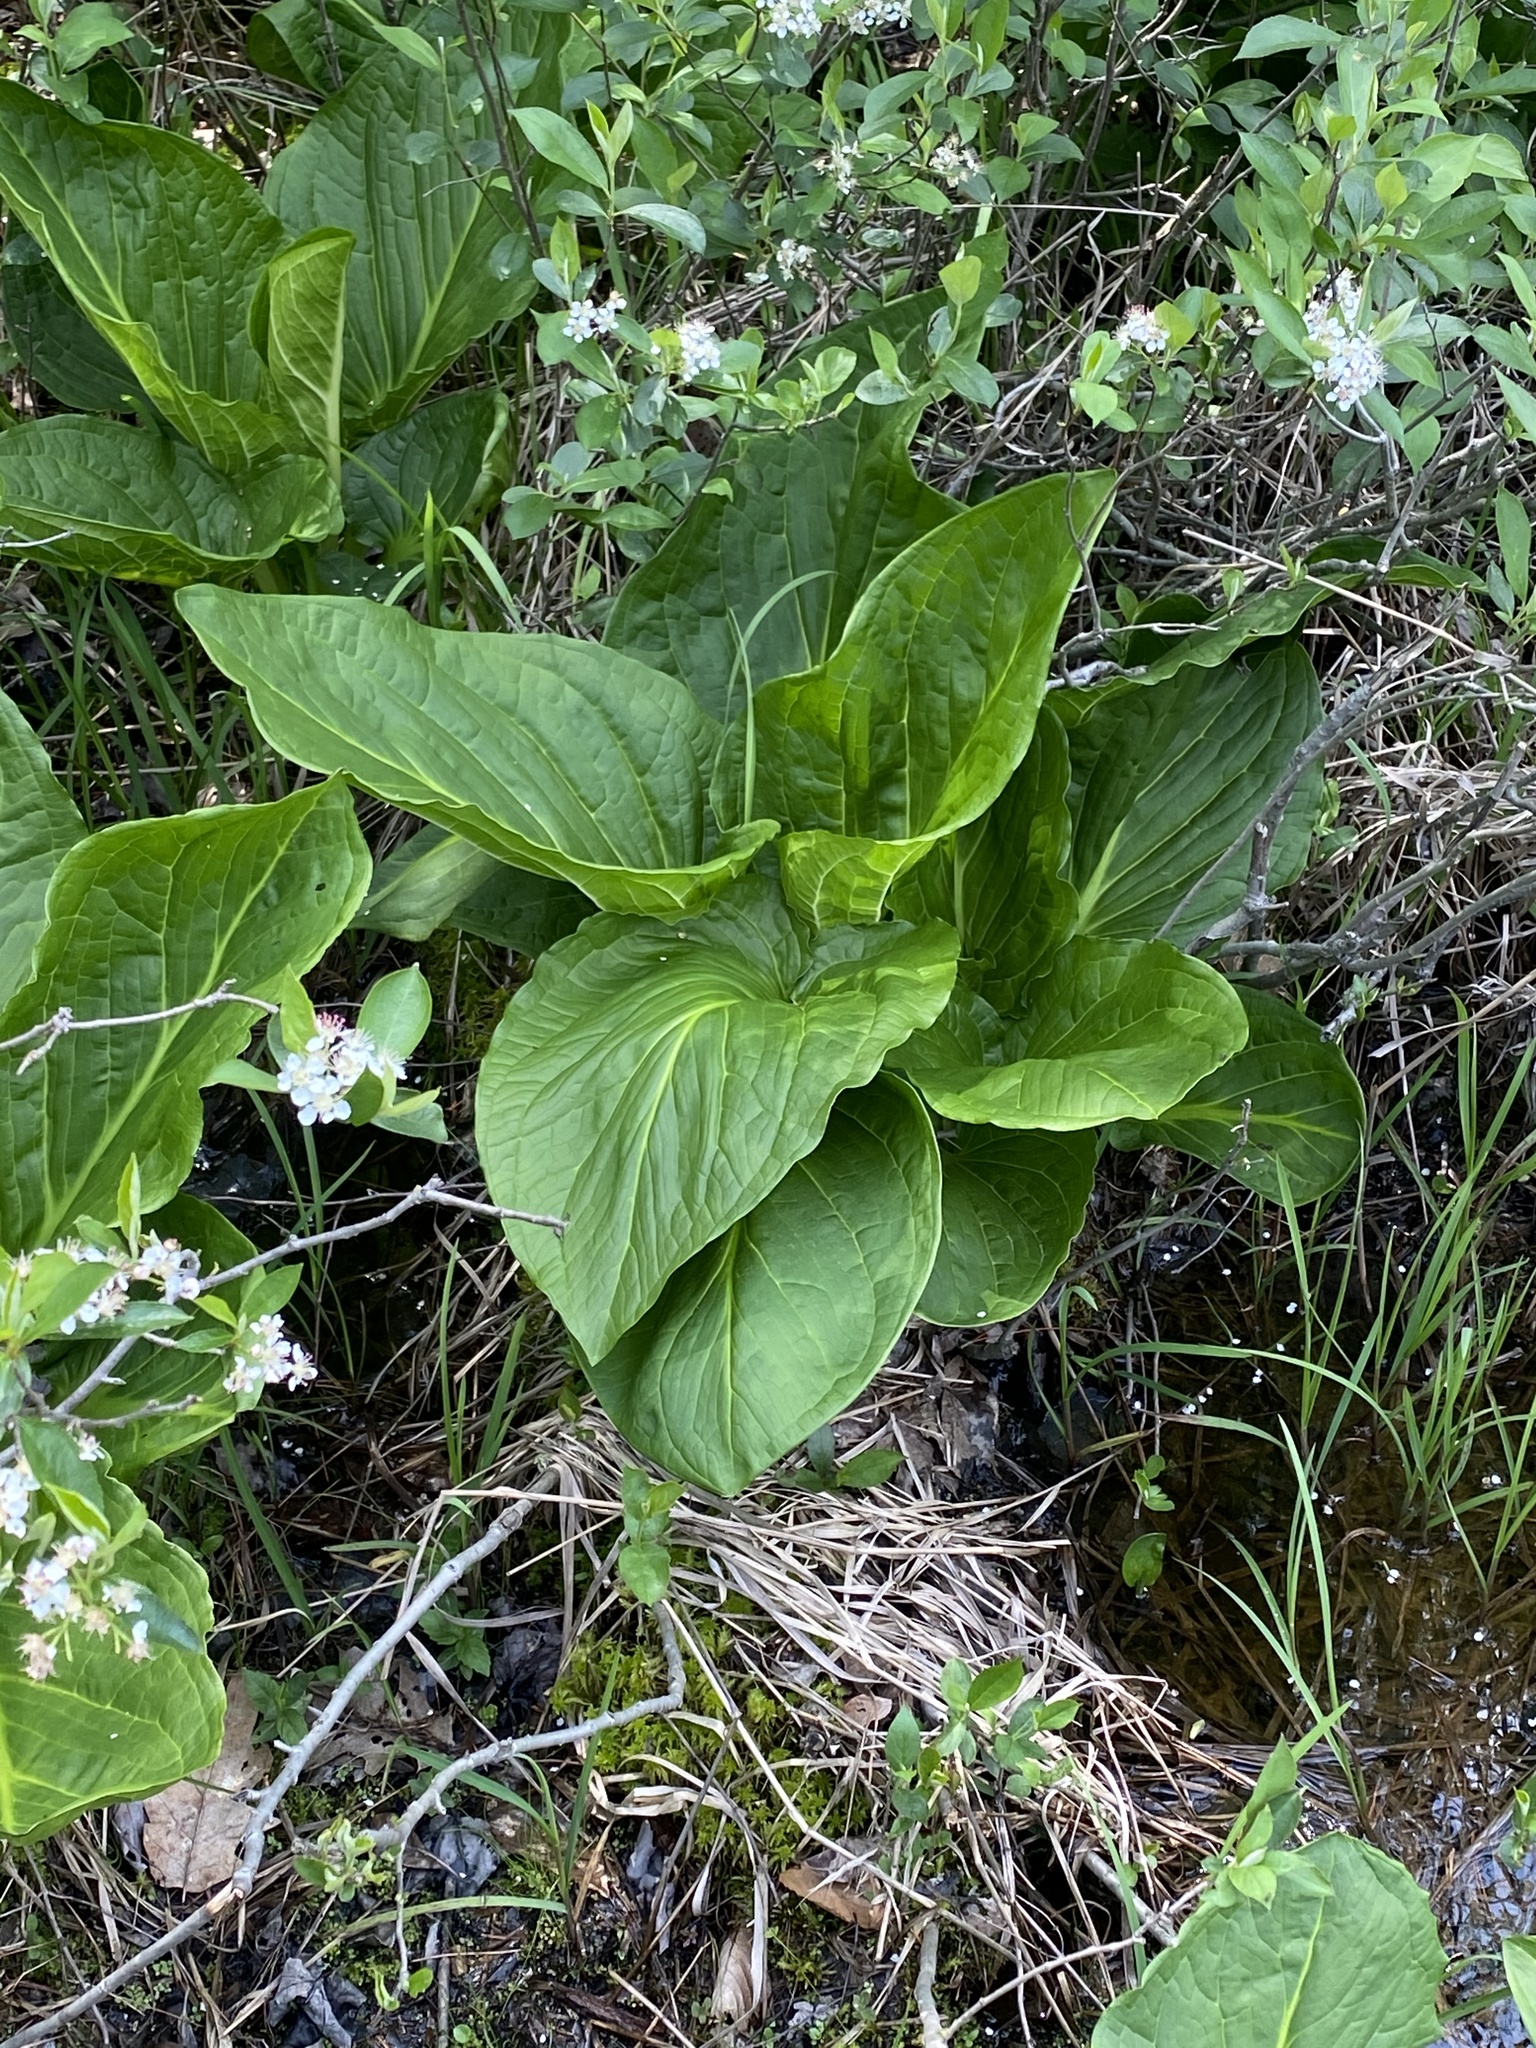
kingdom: Plantae
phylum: Tracheophyta
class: Liliopsida
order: Alismatales
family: Araceae
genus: Symplocarpus
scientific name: Symplocarpus foetidus
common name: Eastern skunk cabbage
